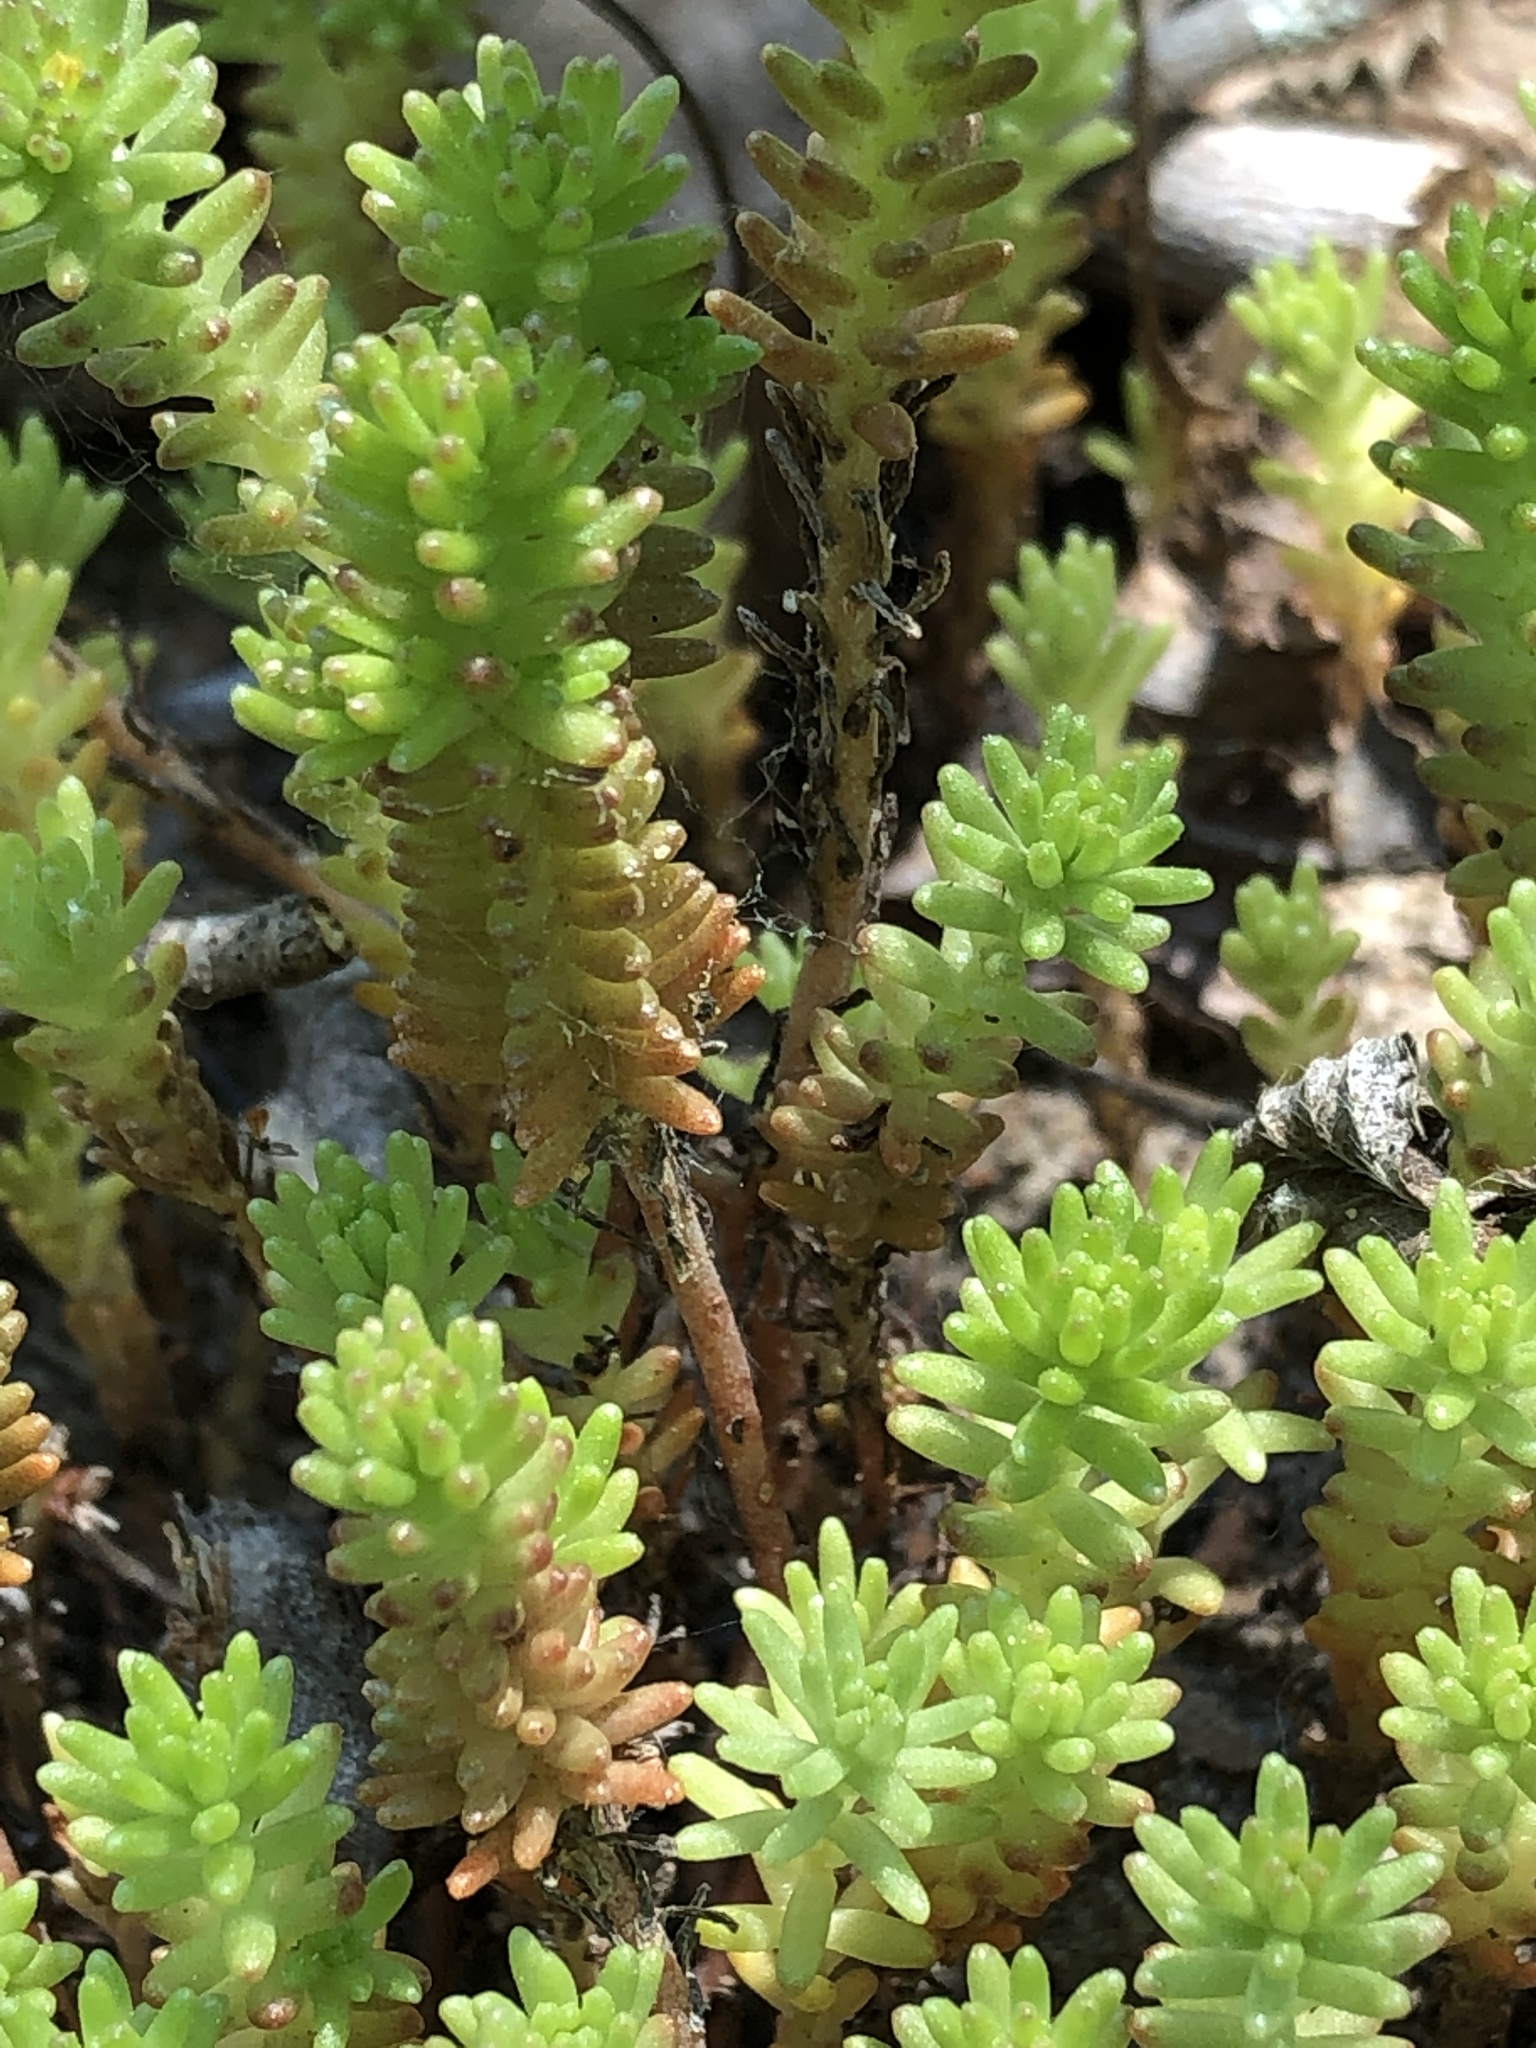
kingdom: Plantae
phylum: Tracheophyta
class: Magnoliopsida
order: Saxifragales
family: Crassulaceae
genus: Sedum
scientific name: Sedum sexangulare
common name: Tasteless stonecrop
